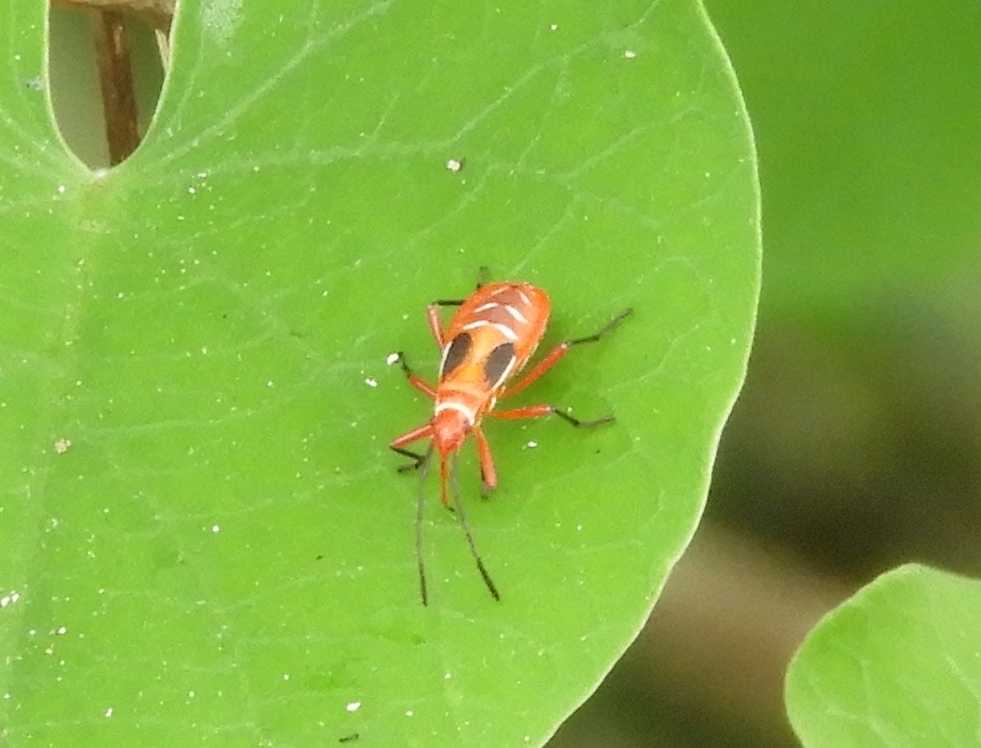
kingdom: Animalia
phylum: Arthropoda
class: Insecta
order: Hemiptera
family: Pyrrhocoridae
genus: Dysdercus
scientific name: Dysdercus
